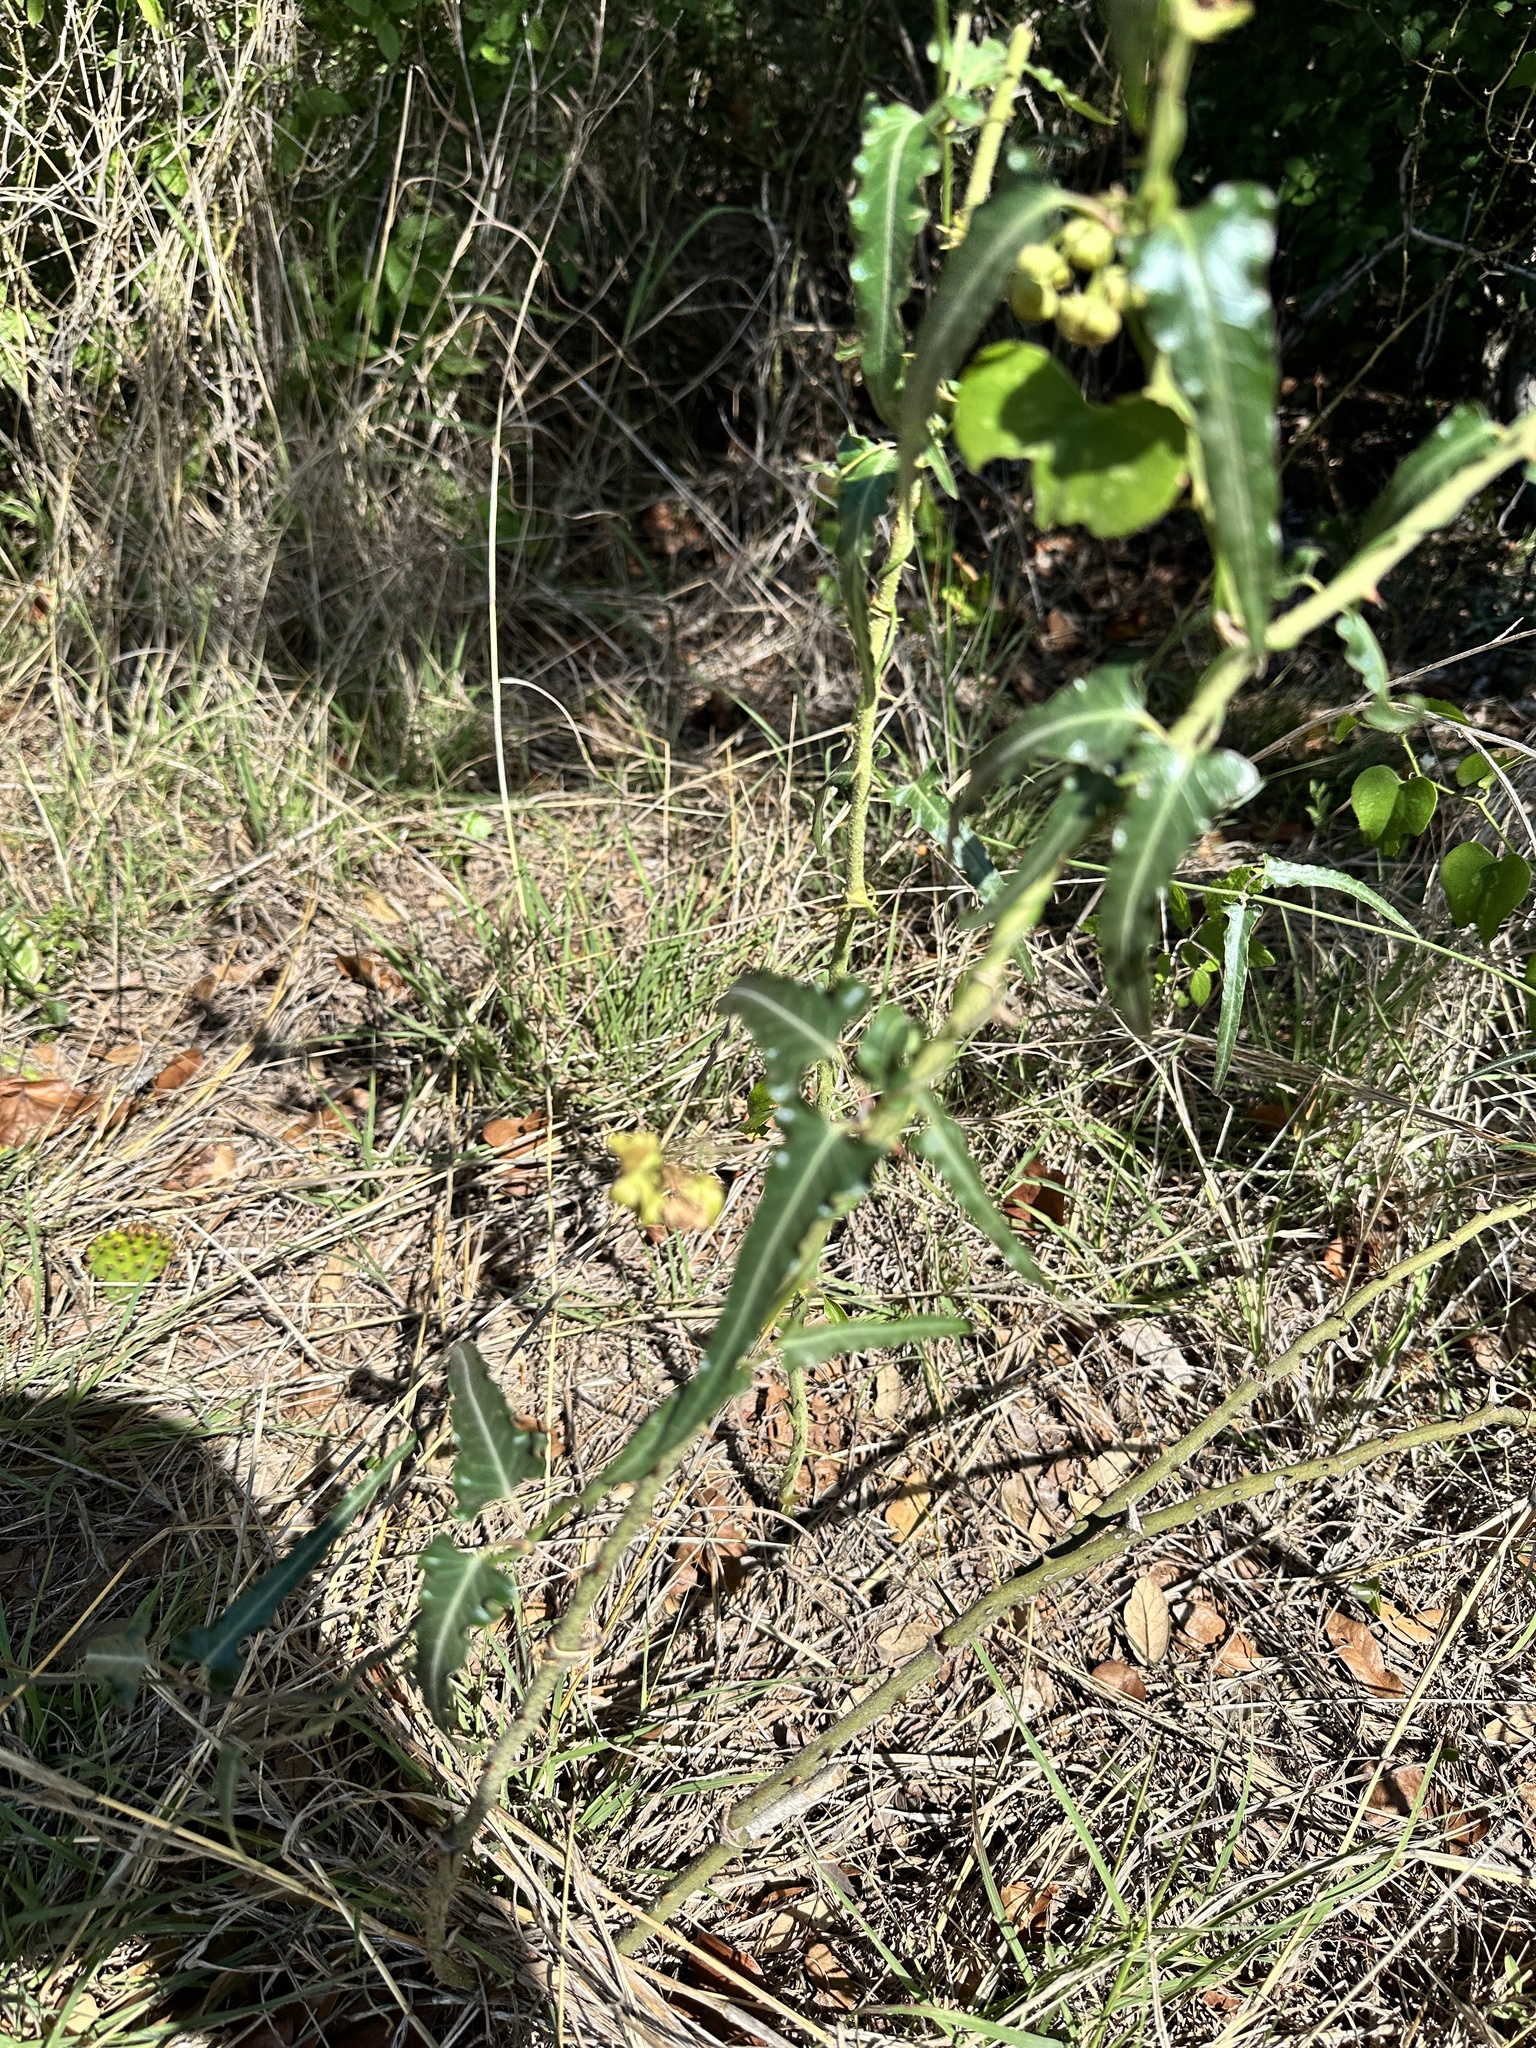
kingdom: Plantae
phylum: Tracheophyta
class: Magnoliopsida
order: Gentianales
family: Apocynaceae
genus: Funastrum
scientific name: Funastrum crispum
